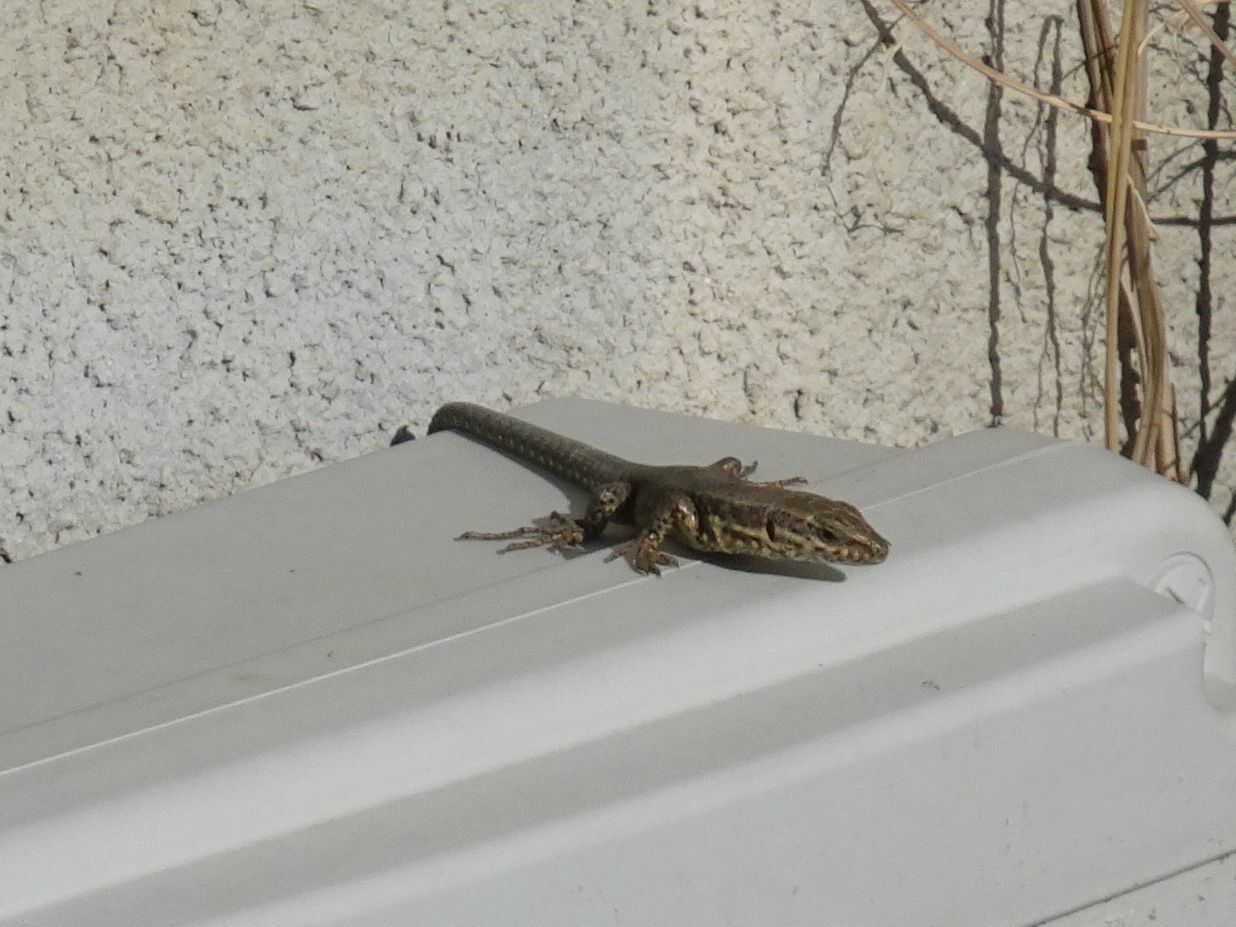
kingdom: Animalia
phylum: Chordata
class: Squamata
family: Lacertidae
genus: Podarcis
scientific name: Podarcis muralis
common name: Common wall lizard
